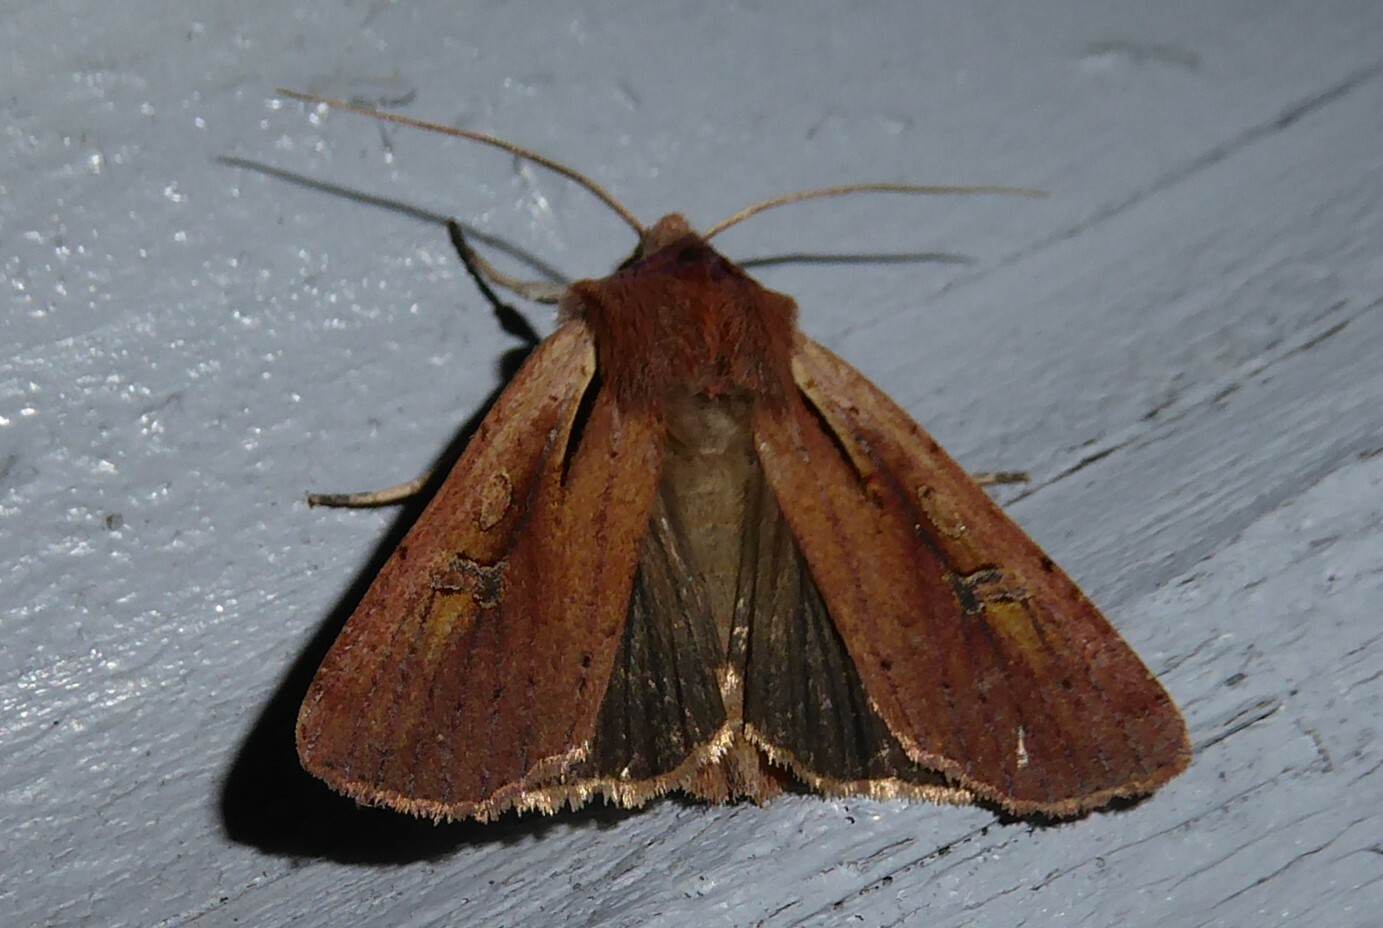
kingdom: Animalia
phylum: Arthropoda
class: Insecta
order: Lepidoptera
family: Noctuidae
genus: Ichneutica
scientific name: Ichneutica atristriga
